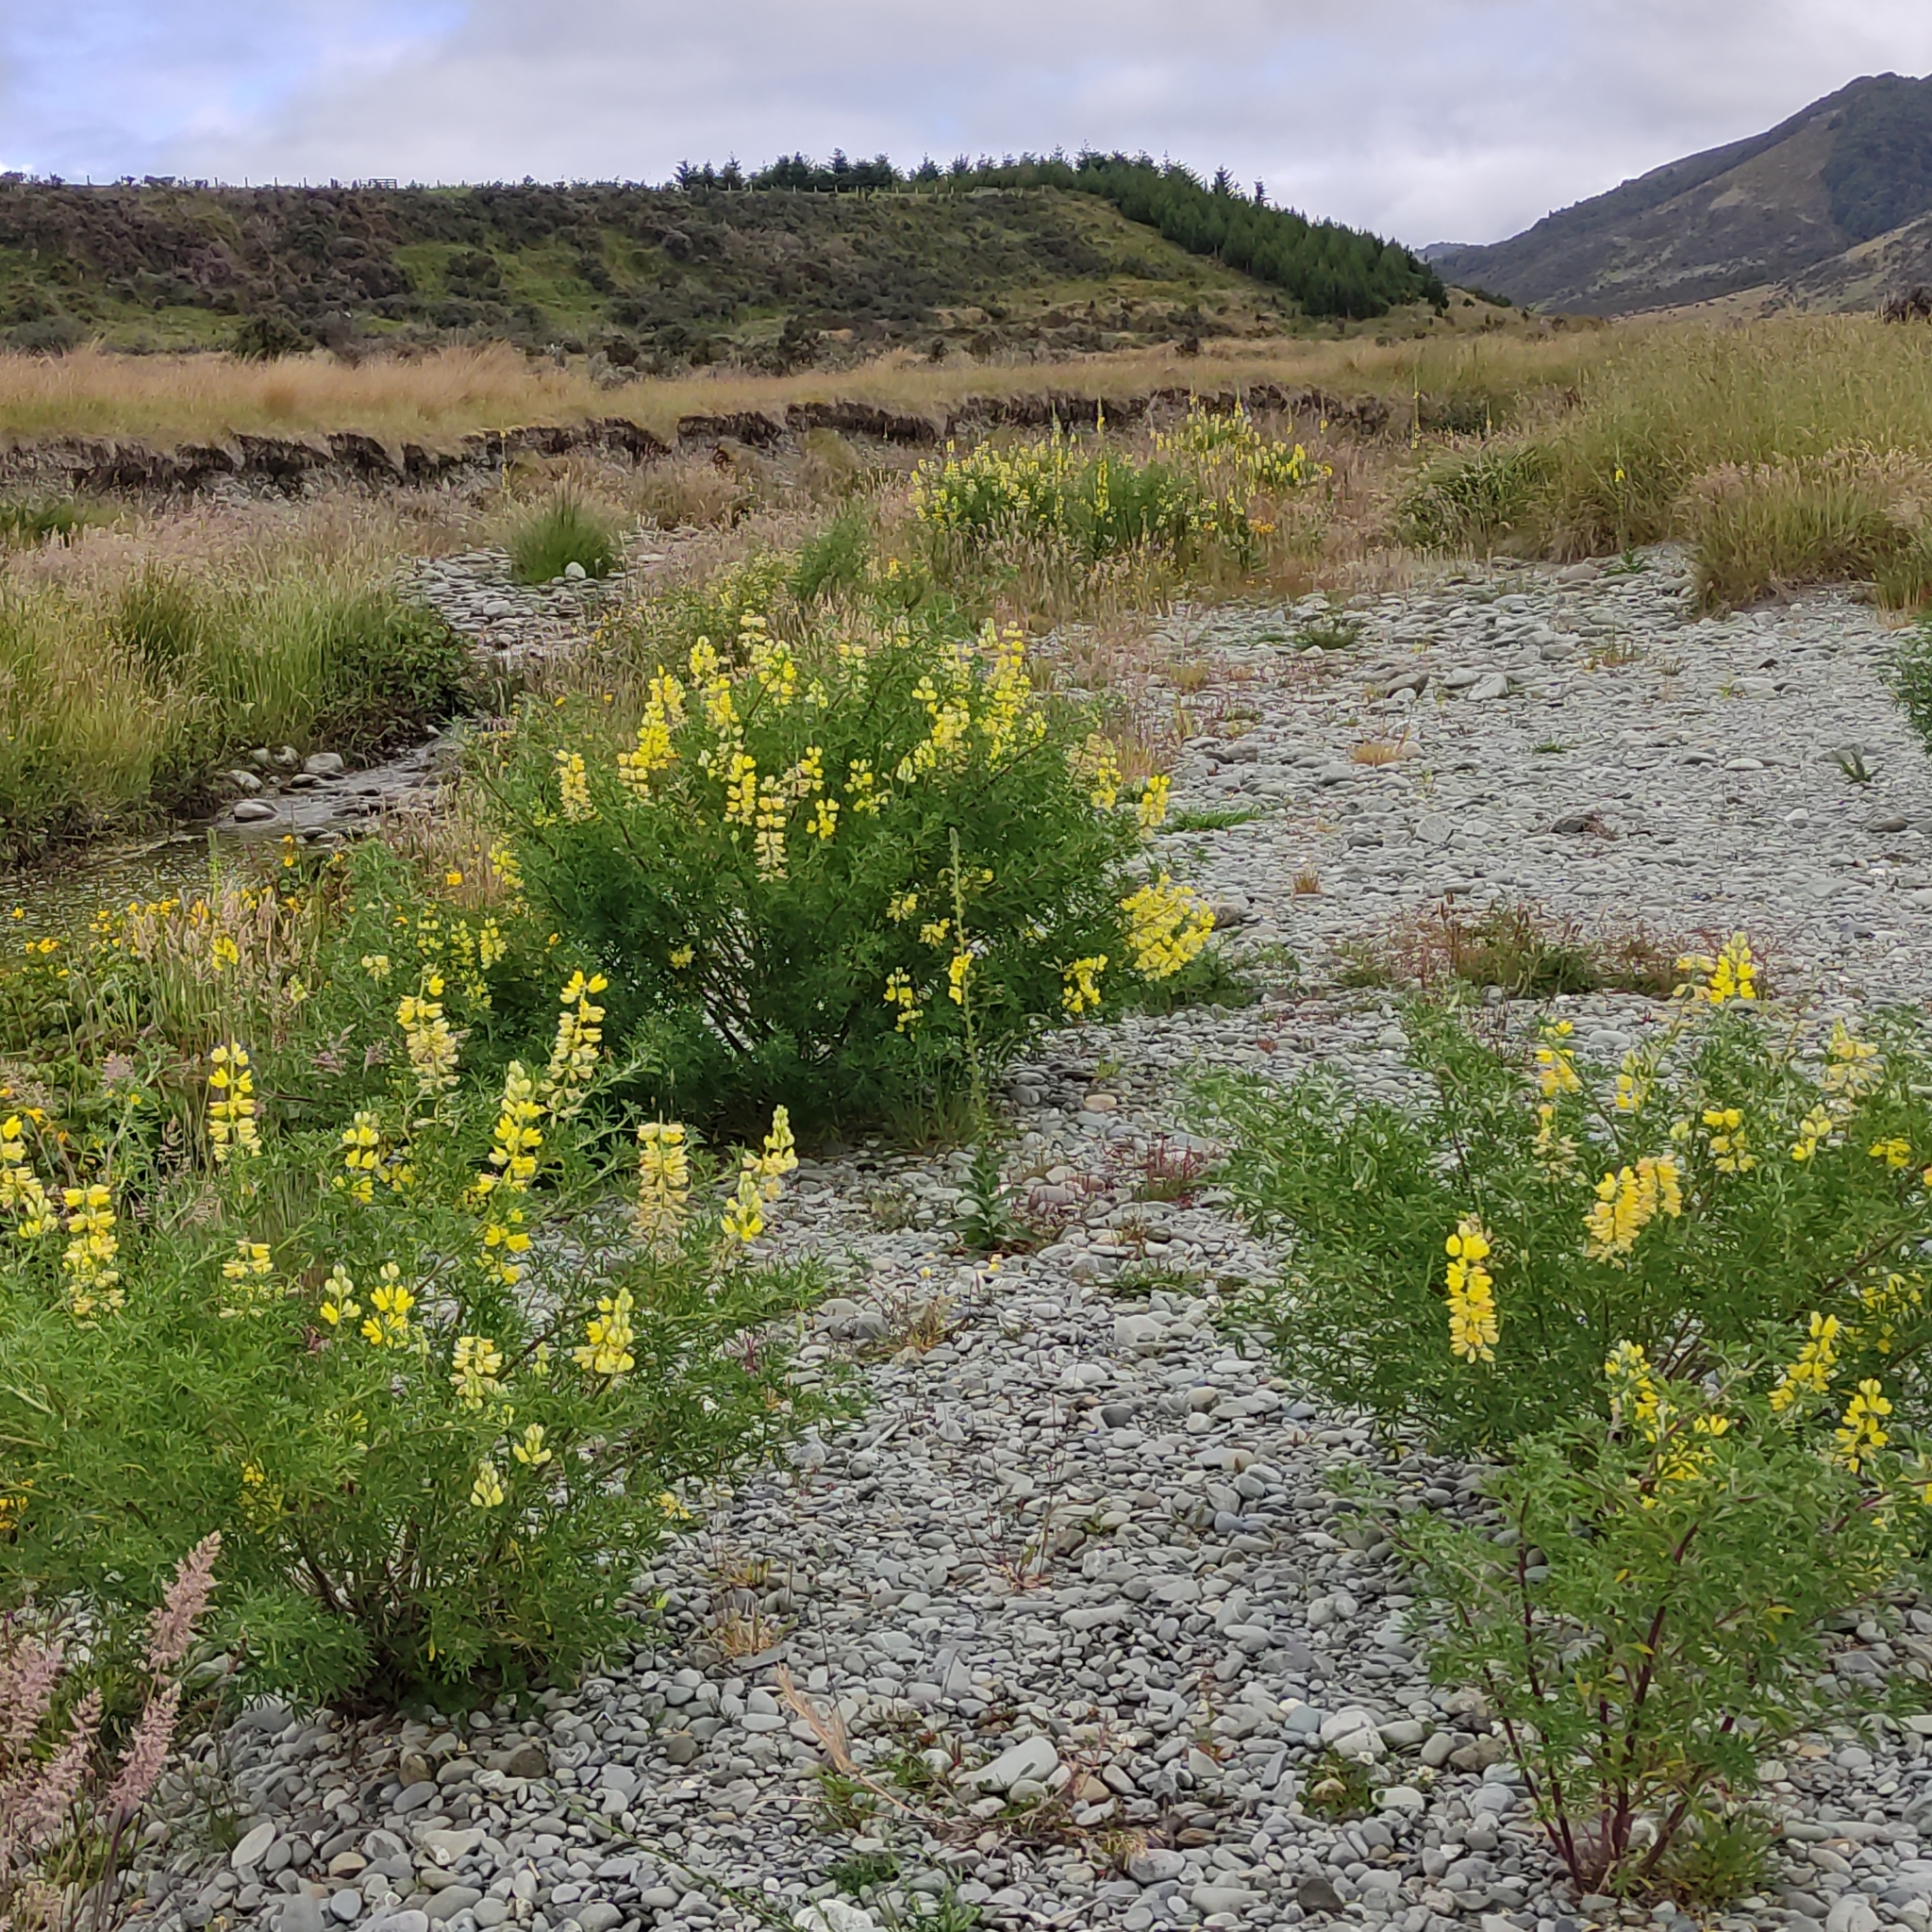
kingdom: Plantae
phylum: Tracheophyta
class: Magnoliopsida
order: Fabales
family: Fabaceae
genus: Lupinus
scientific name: Lupinus arboreus
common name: Yellow bush lupine
